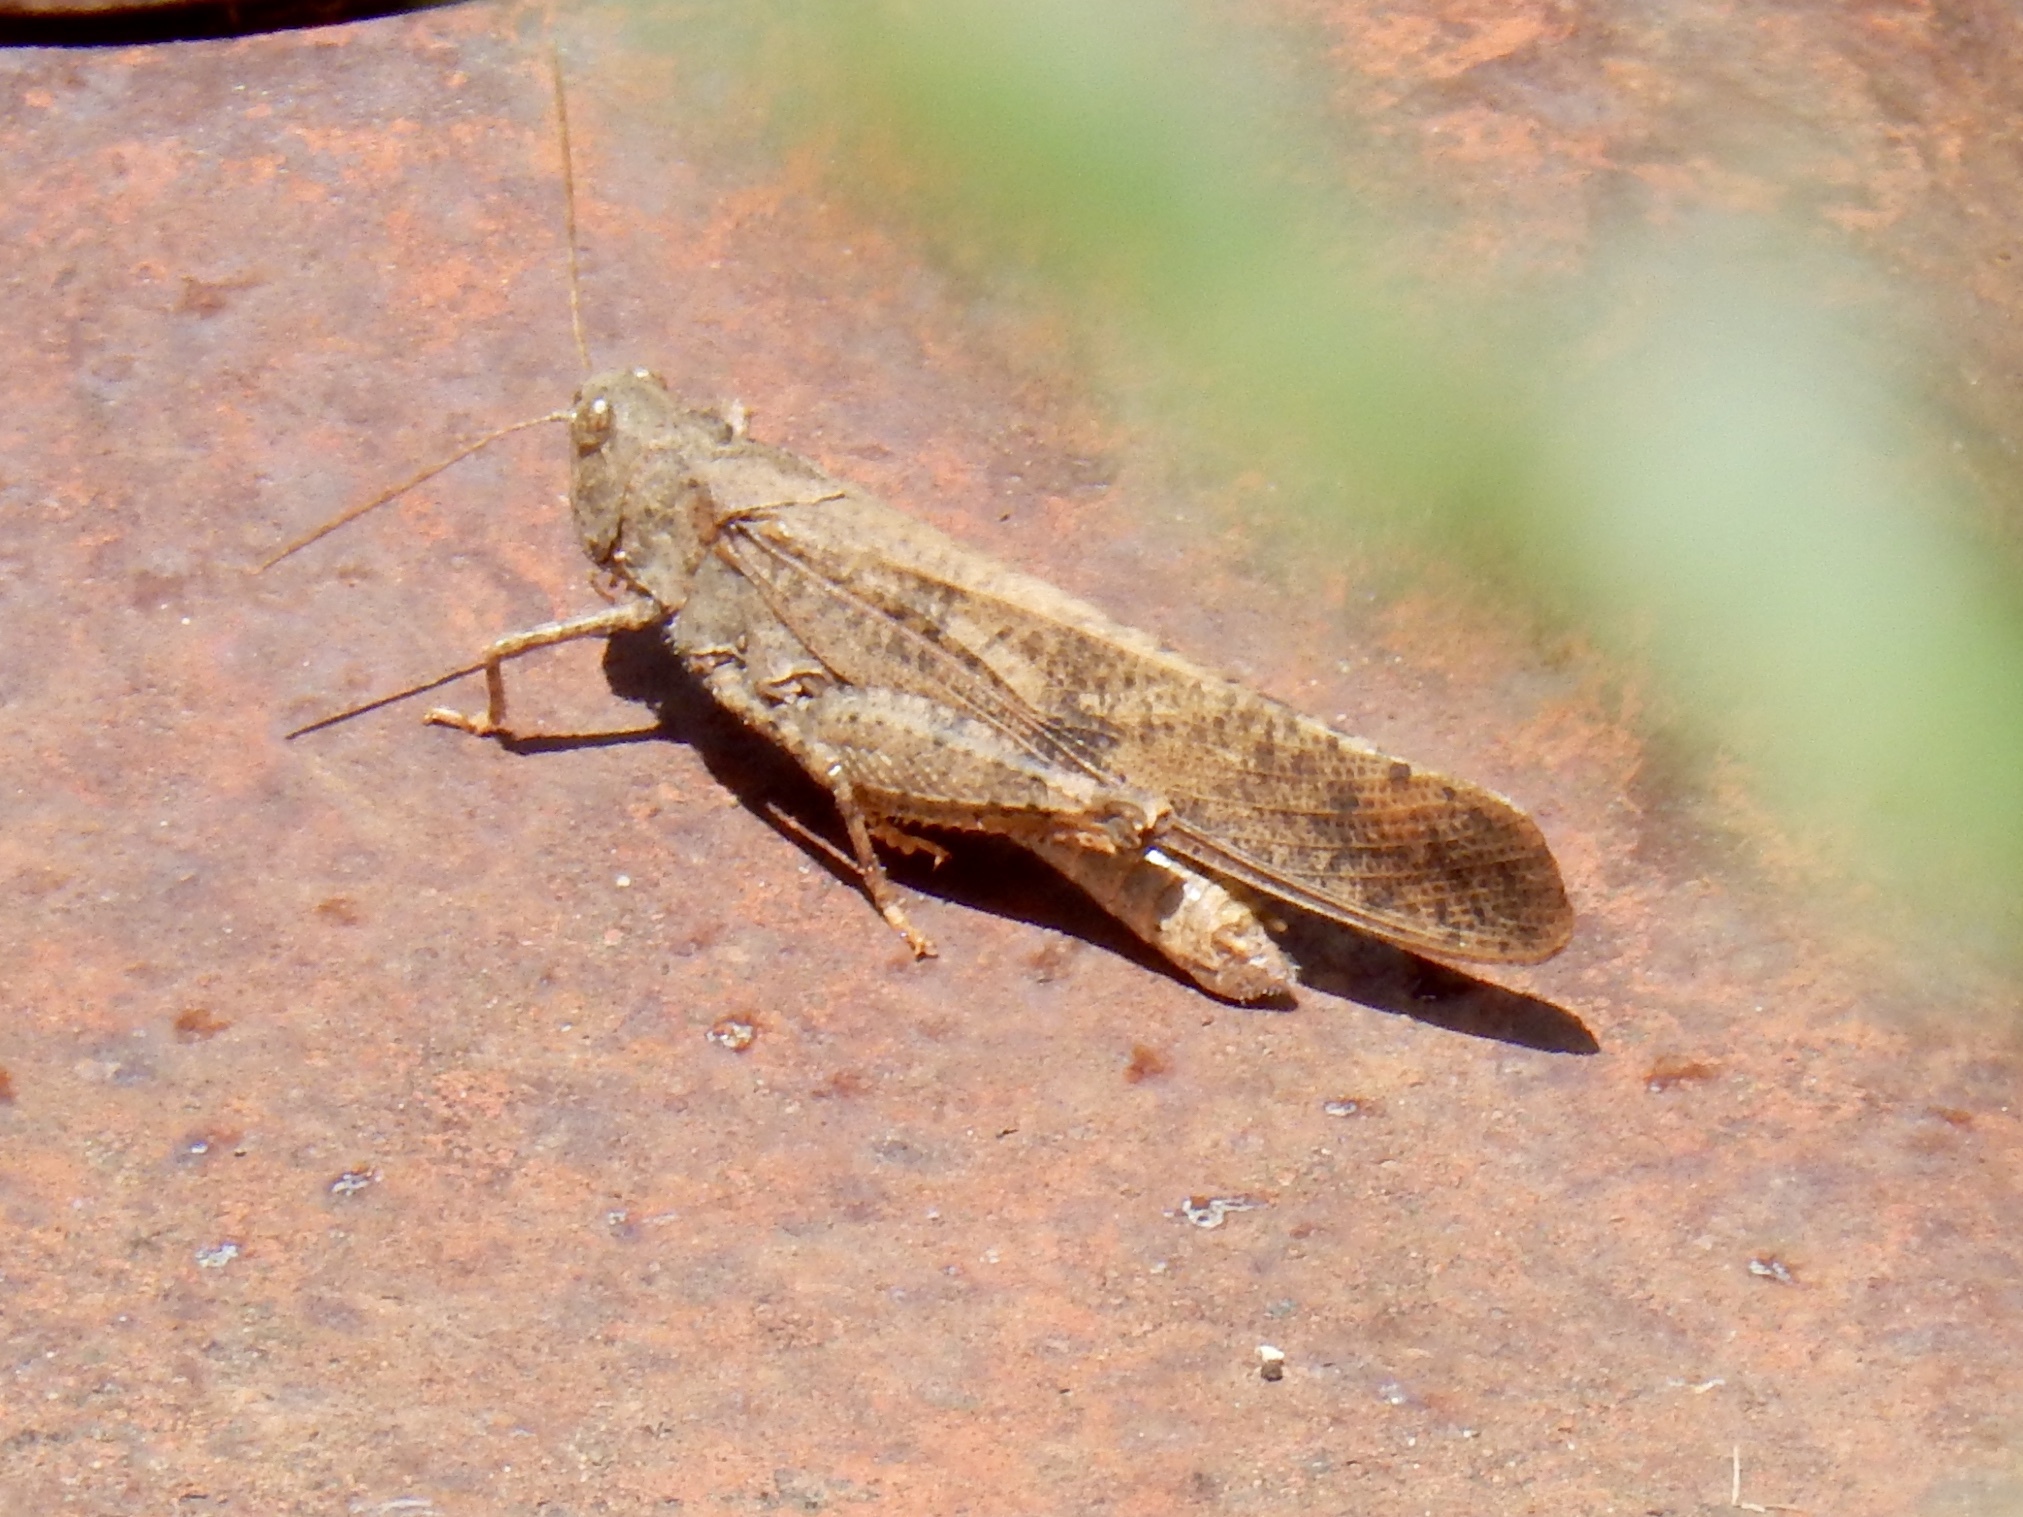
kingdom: Animalia
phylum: Arthropoda
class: Insecta
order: Orthoptera
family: Acrididae
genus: Dissosteira
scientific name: Dissosteira carolina
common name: Carolina grasshopper
